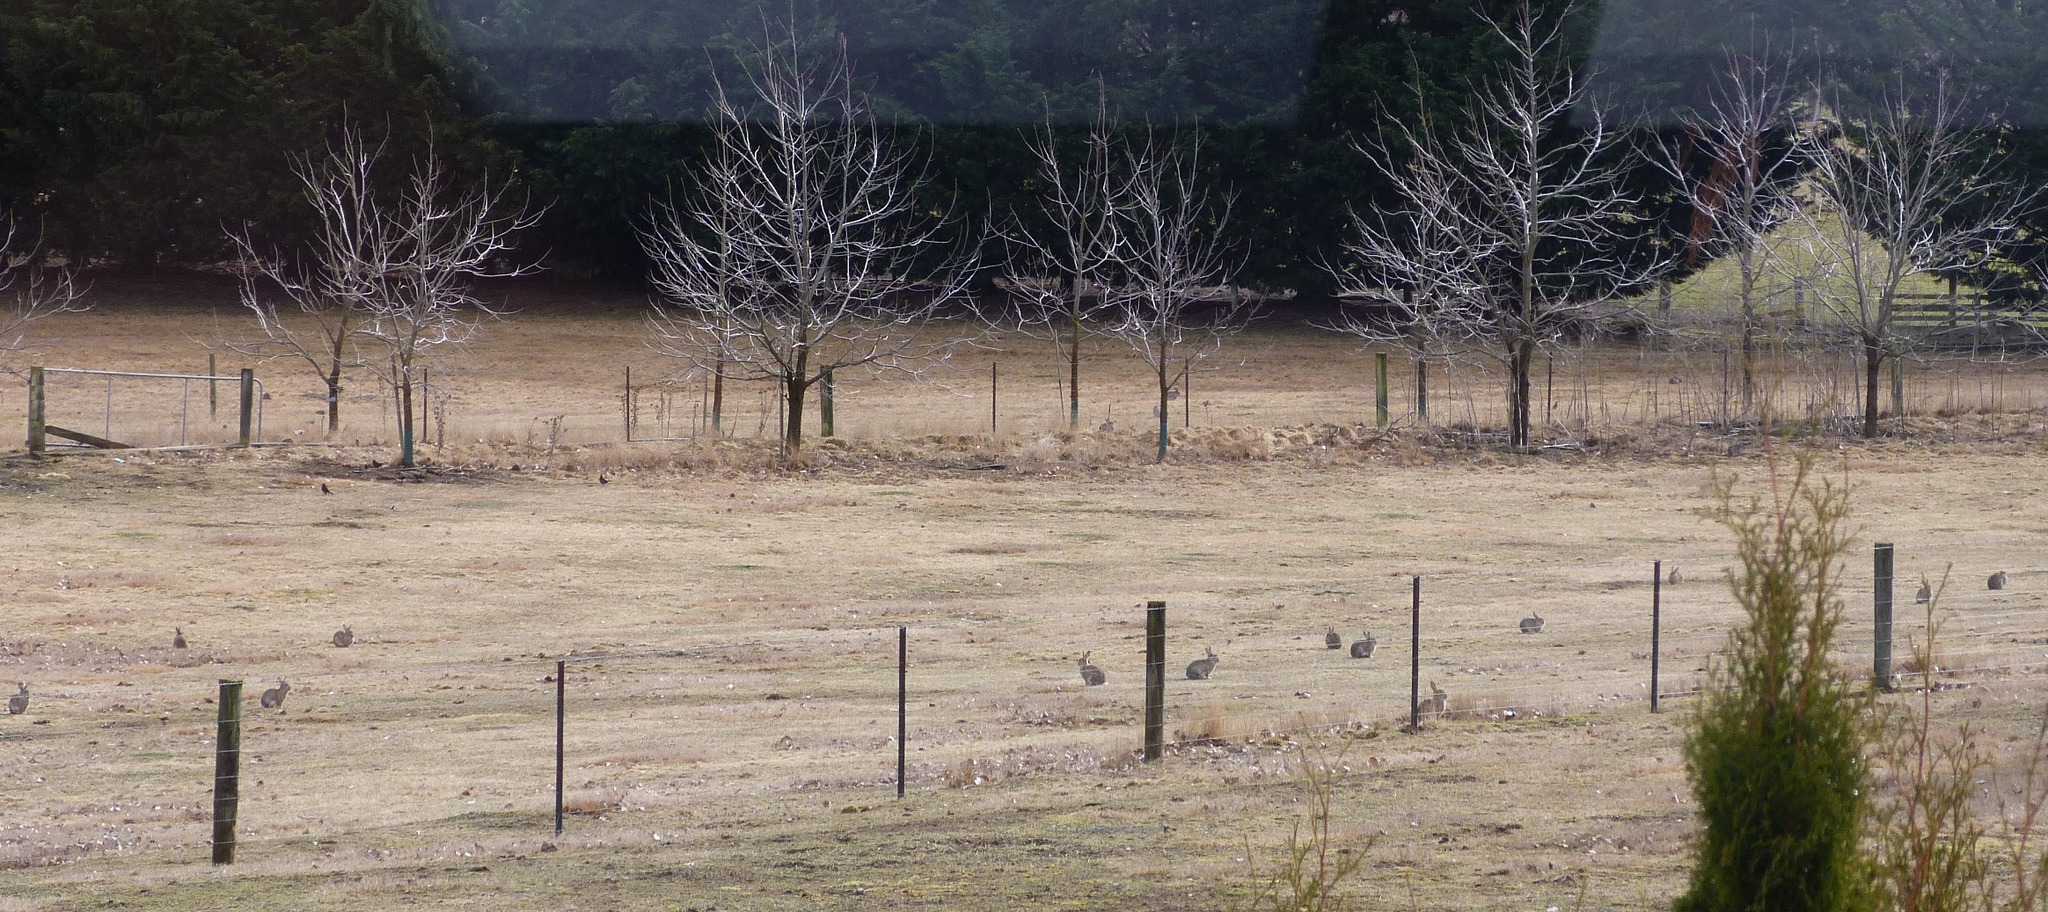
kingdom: Animalia
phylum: Chordata
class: Mammalia
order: Lagomorpha
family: Leporidae
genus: Oryctolagus
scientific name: Oryctolagus cuniculus
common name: European rabbit
